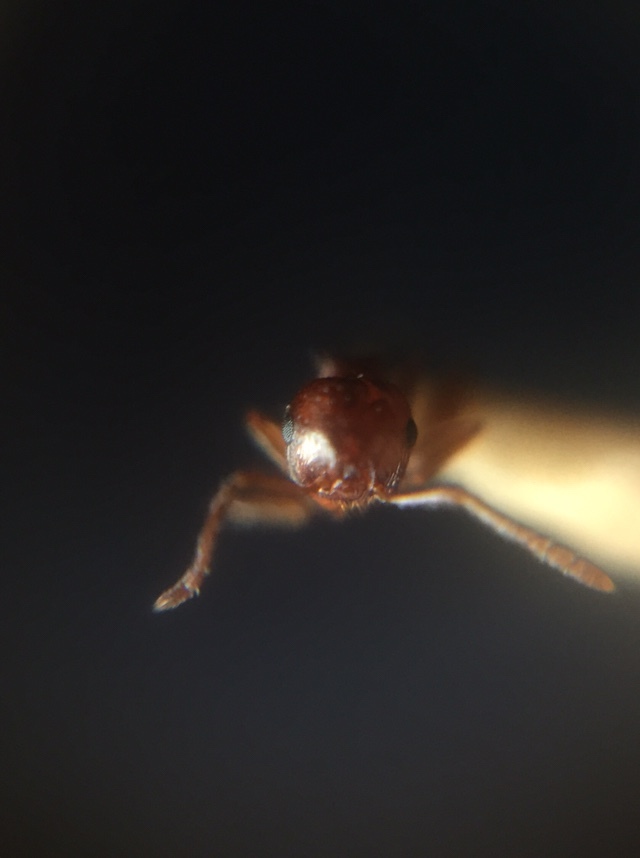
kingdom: Animalia
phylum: Arthropoda
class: Insecta
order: Hymenoptera
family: Formicidae
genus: Crematogaster
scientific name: Crematogaster
